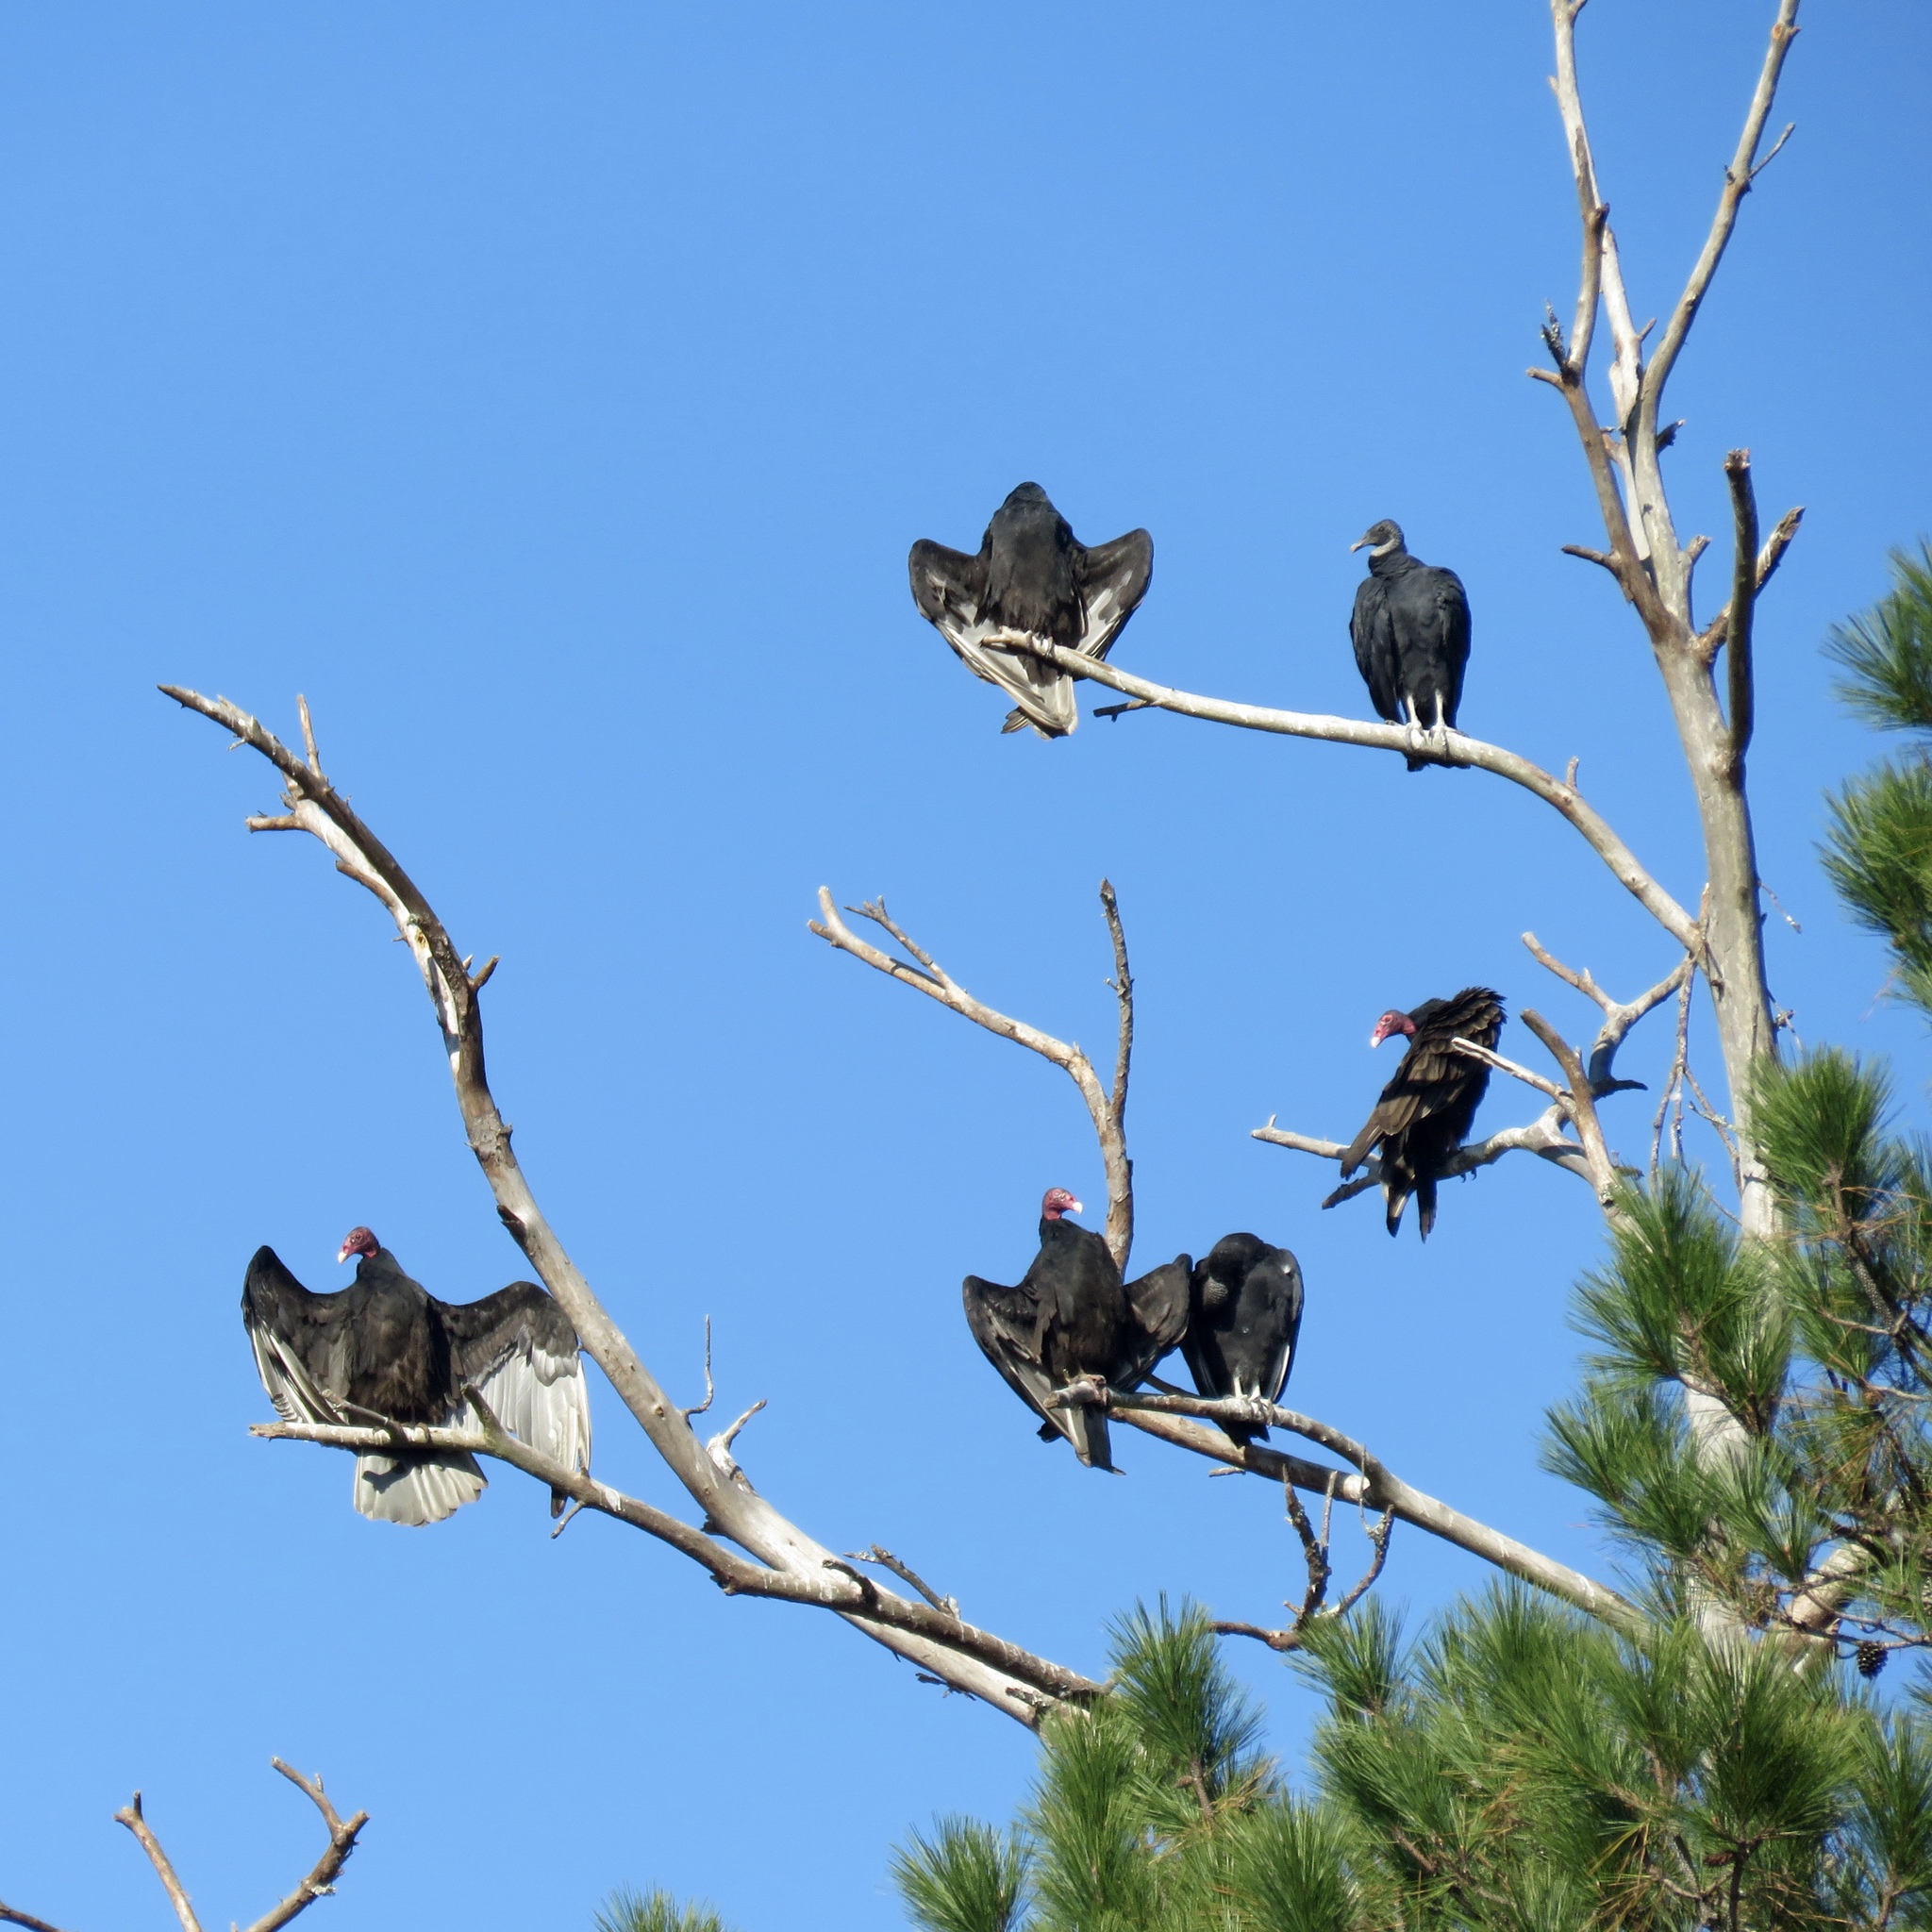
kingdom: Animalia
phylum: Chordata
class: Aves
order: Accipitriformes
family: Cathartidae
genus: Cathartes
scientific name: Cathartes aura
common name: Turkey vulture
